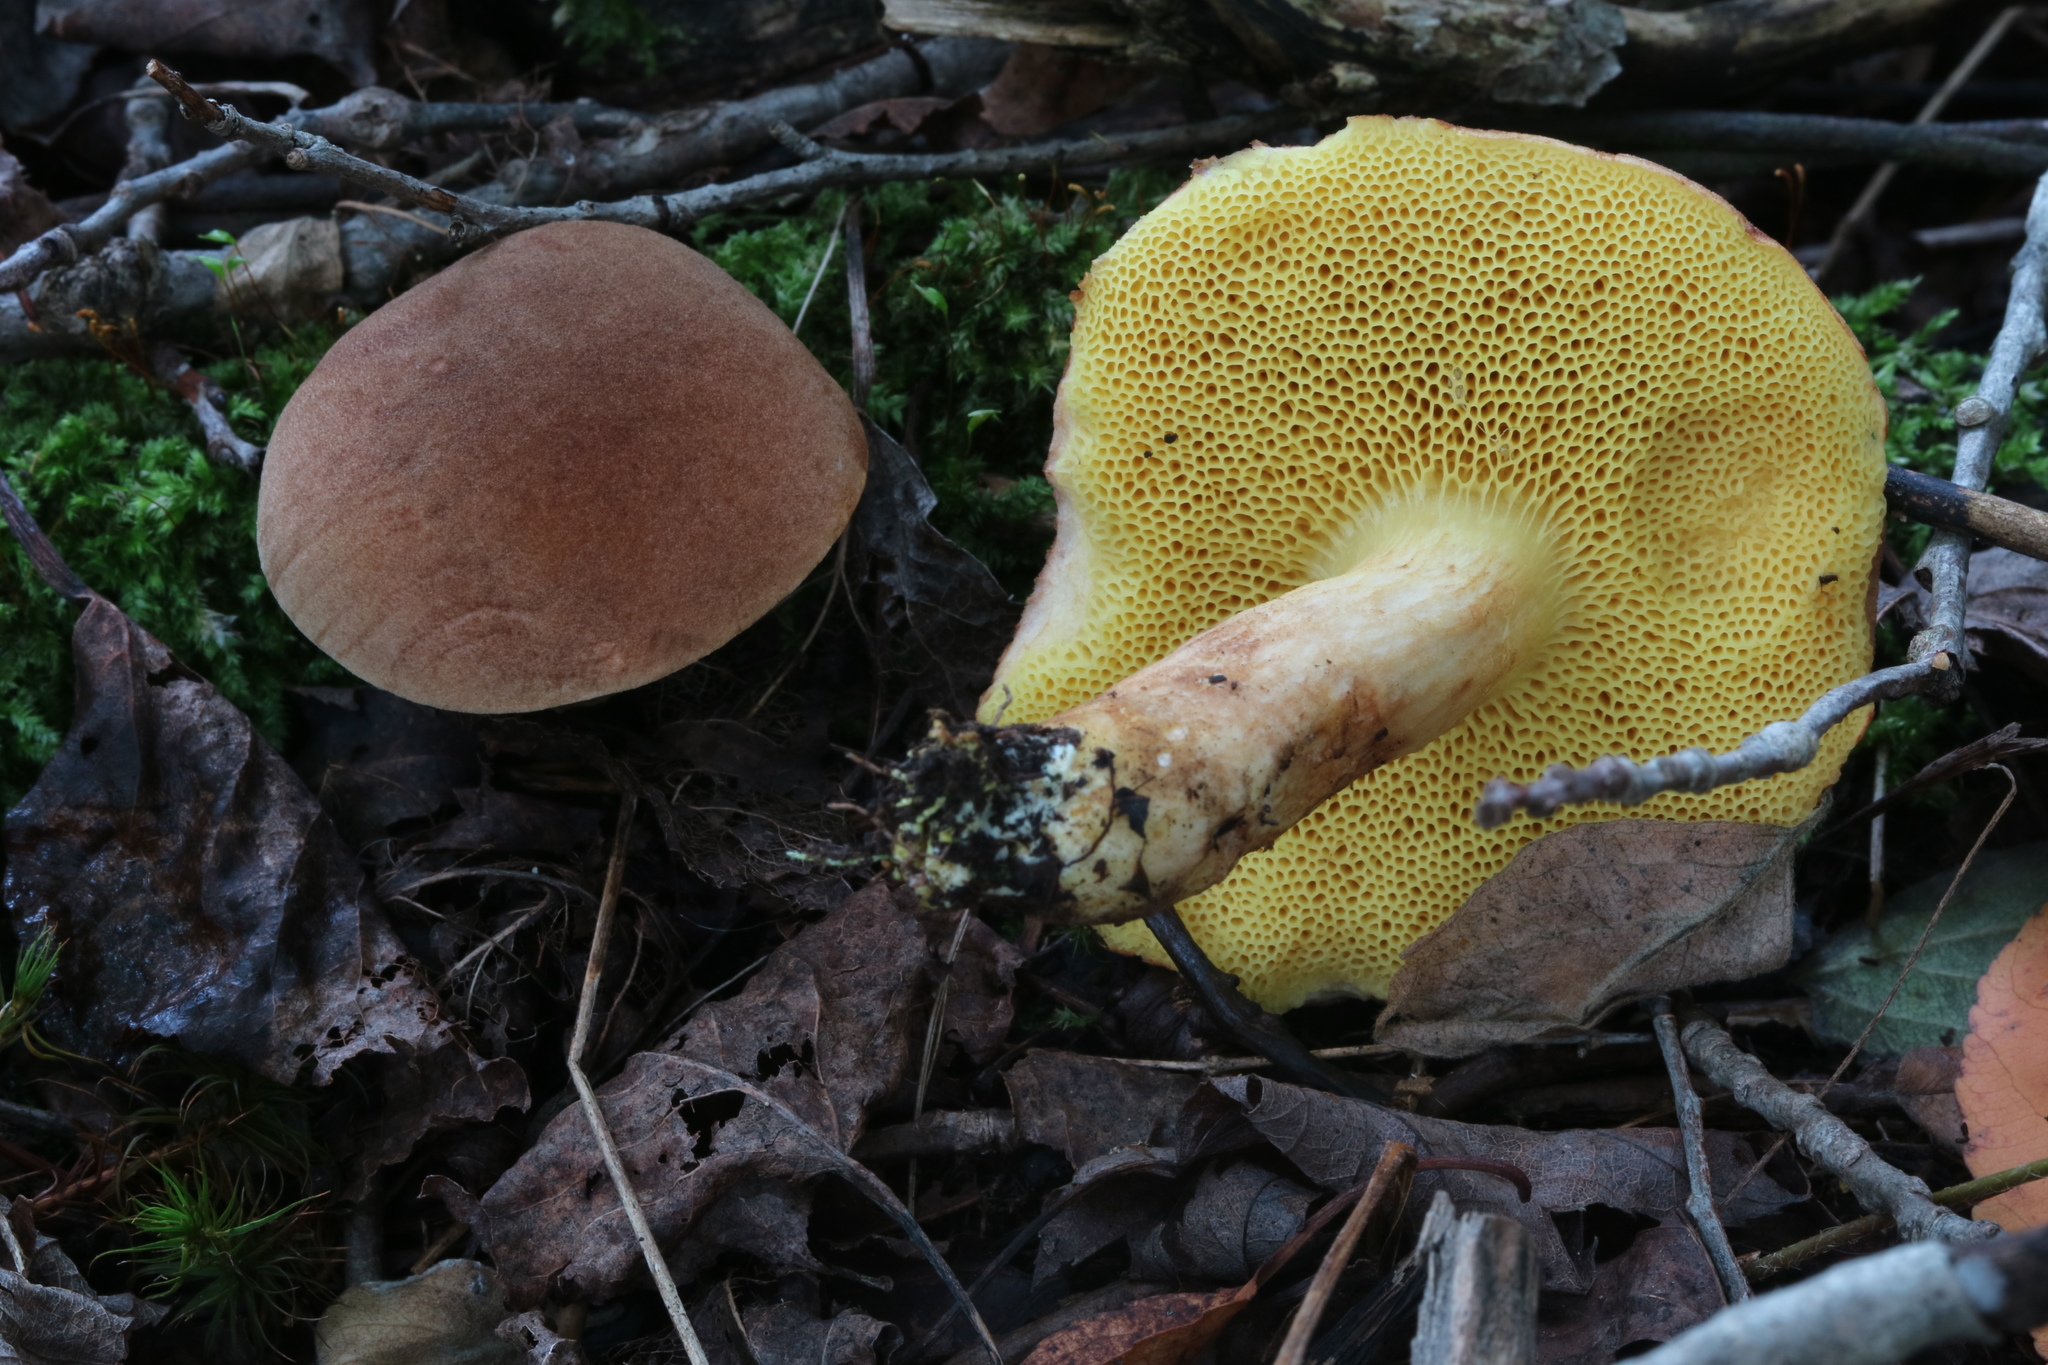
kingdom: Fungi
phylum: Basidiomycota
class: Agaricomycetes
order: Boletales
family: Boletaceae
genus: Xerocomus
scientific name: Xerocomus subtomentosus
